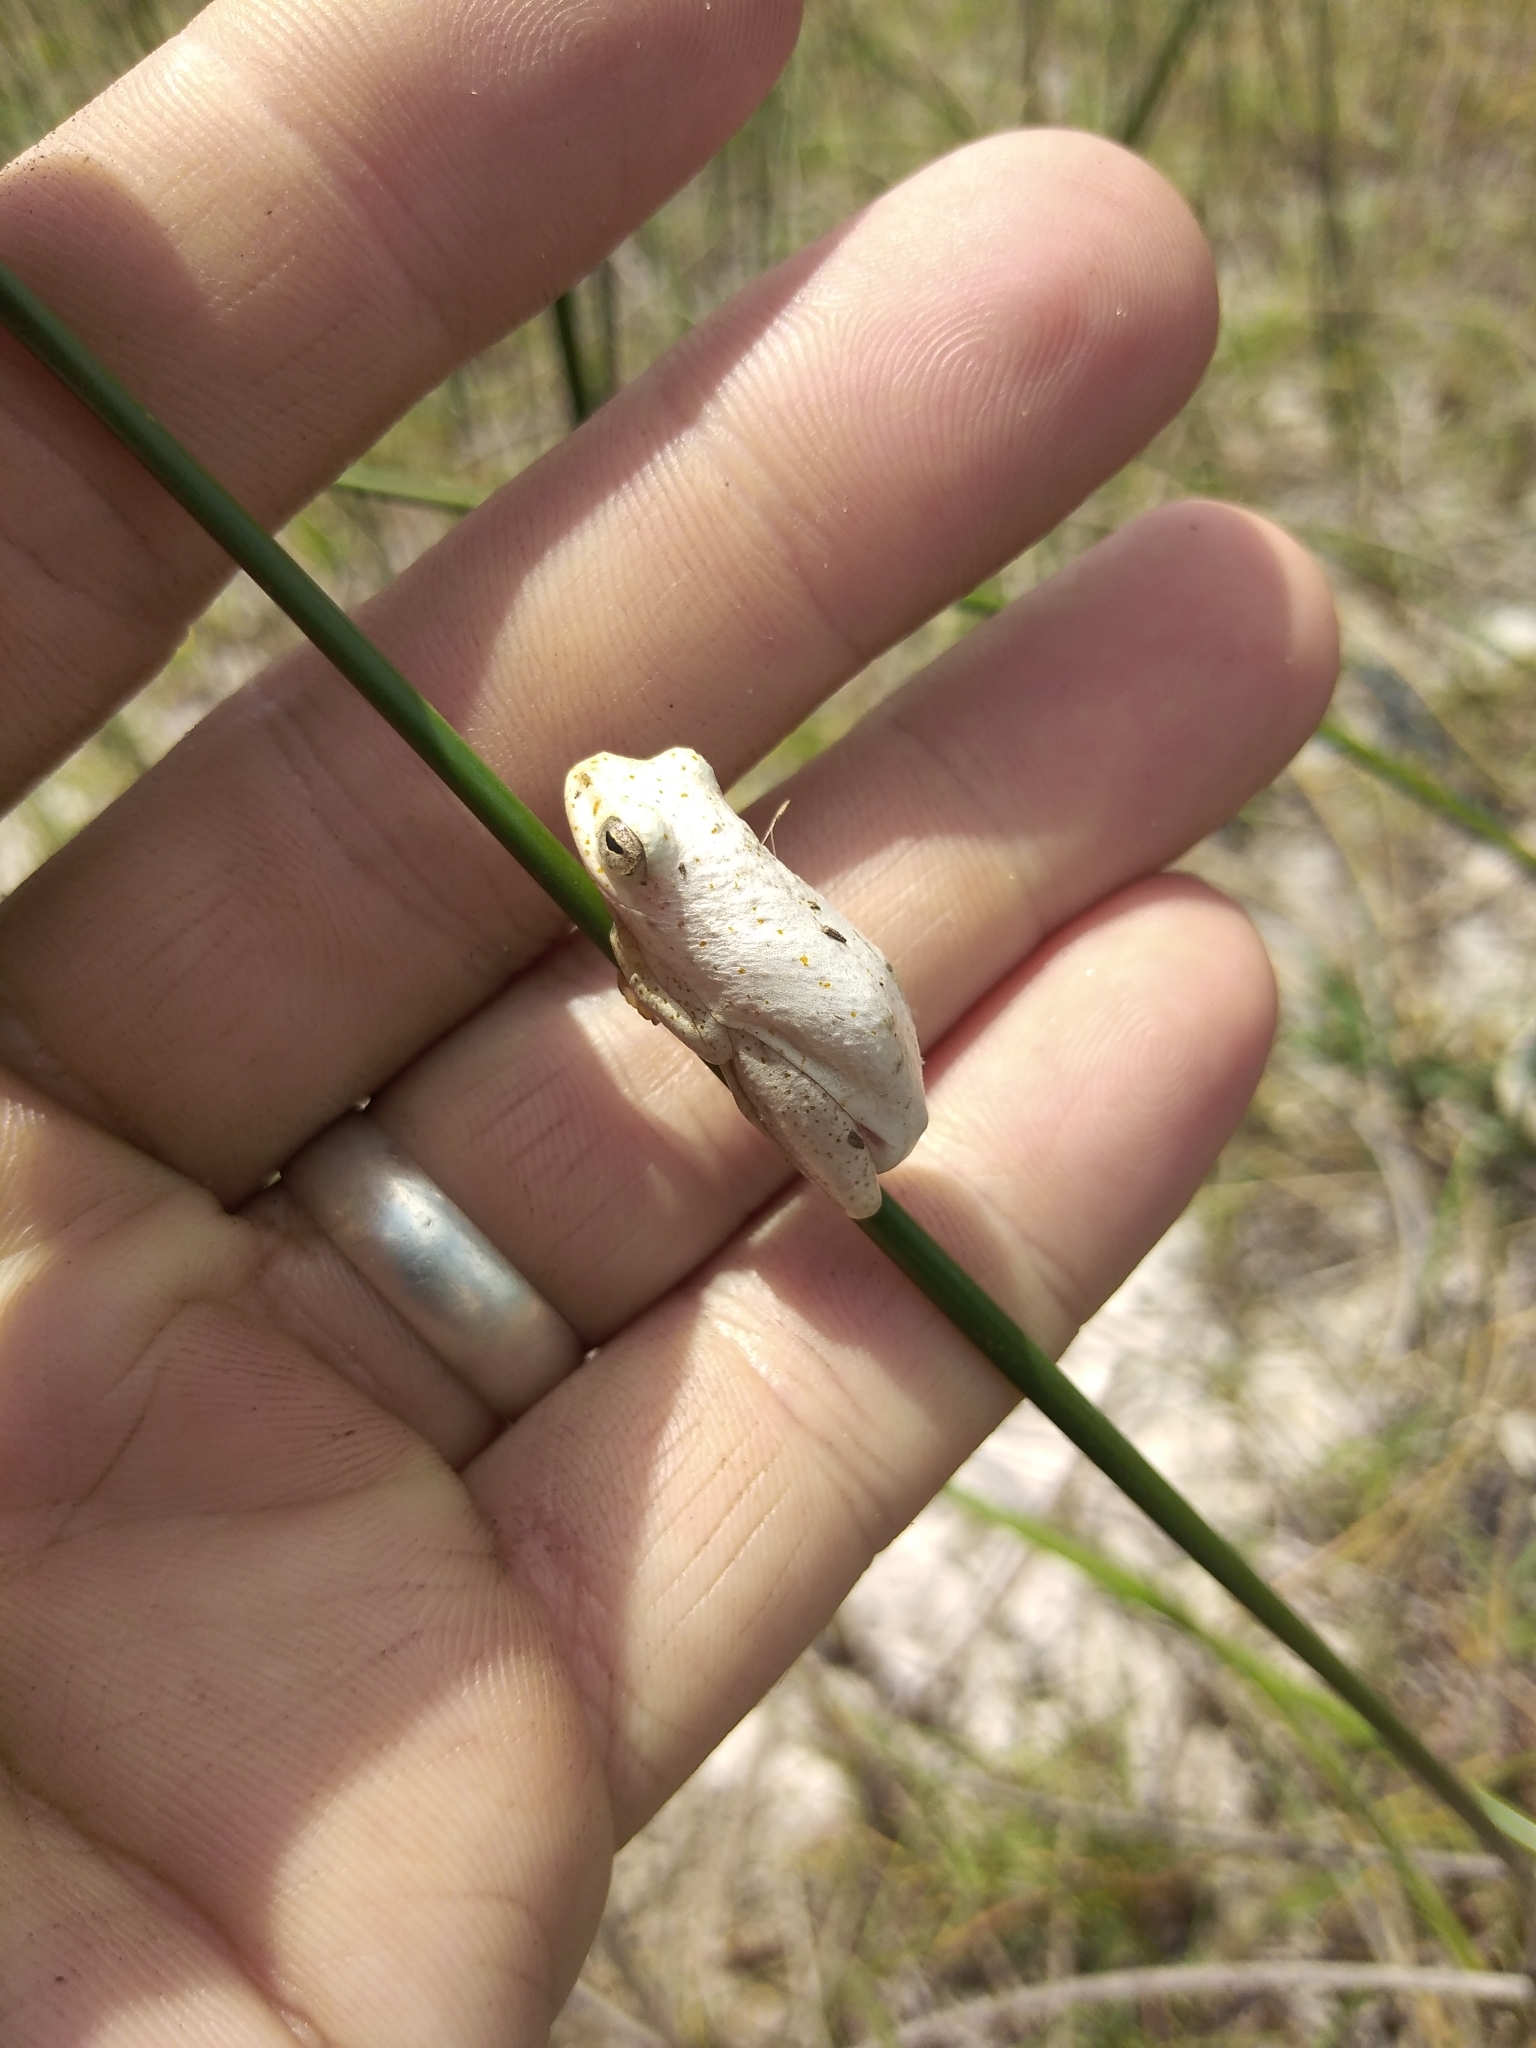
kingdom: Animalia
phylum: Chordata
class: Amphibia
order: Anura
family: Hyperoliidae
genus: Hyperolius
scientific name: Hyperolius marmoratus
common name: Painted reed frog
